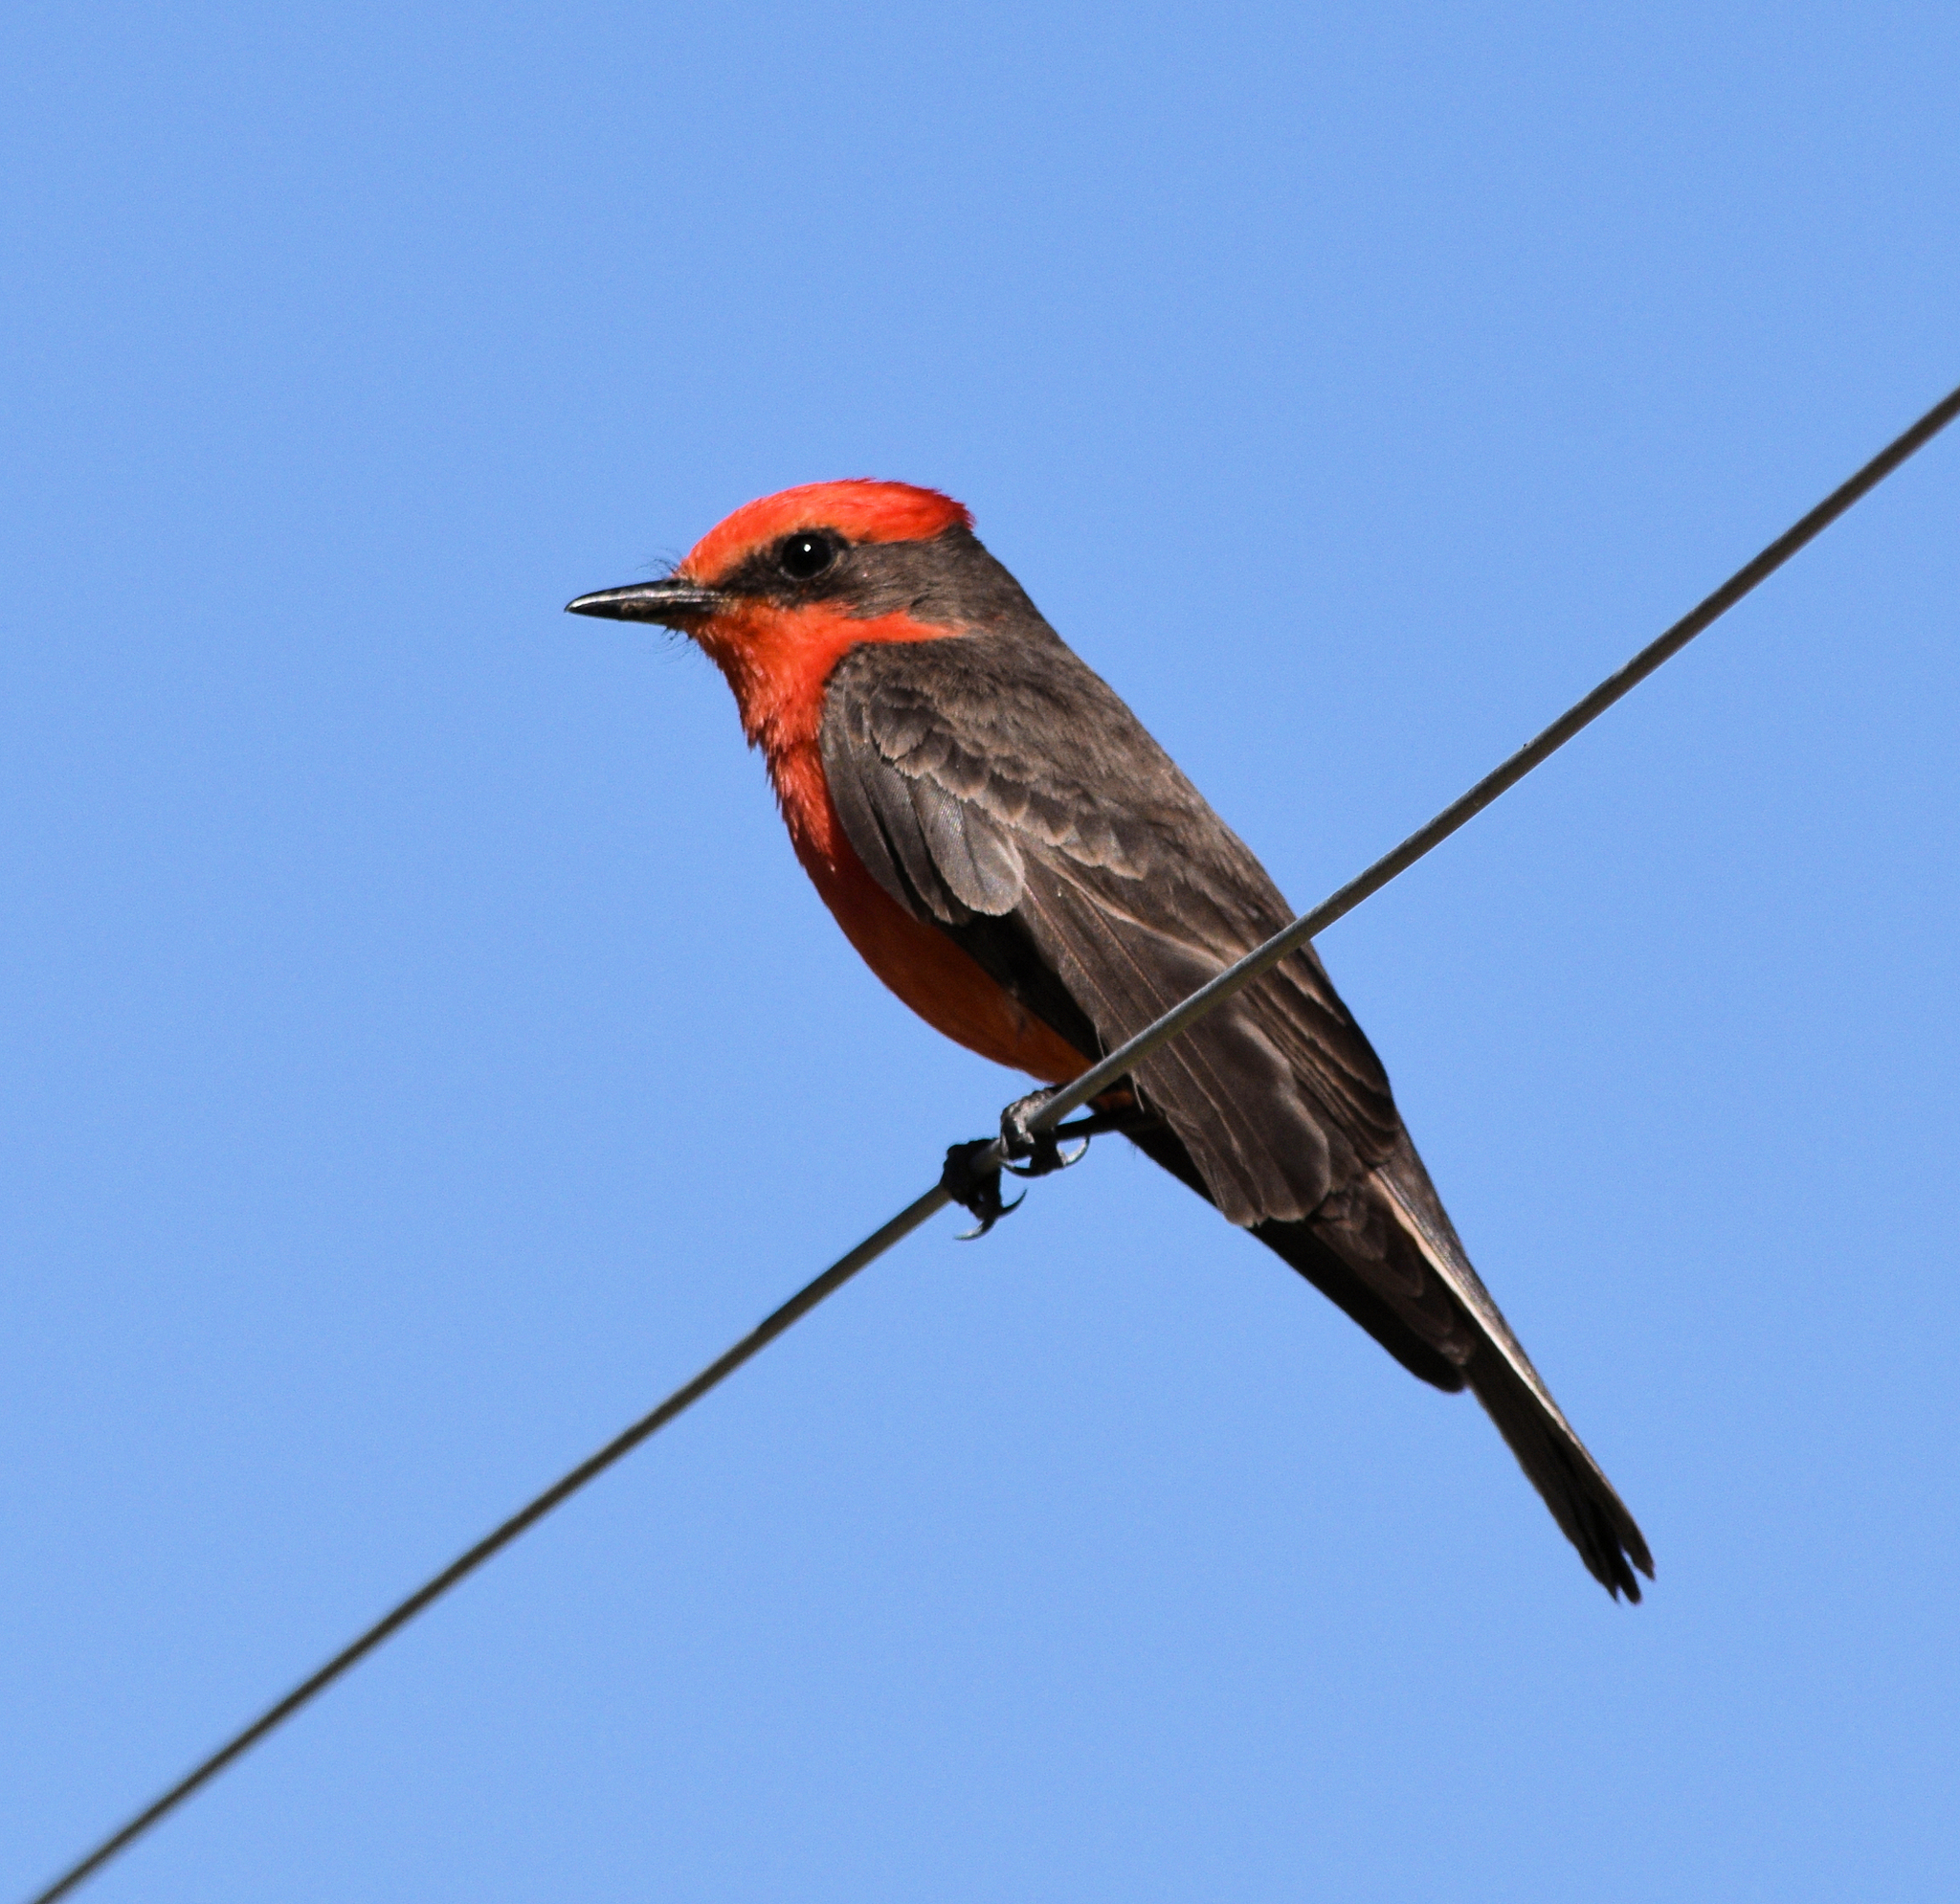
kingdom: Animalia
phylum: Chordata
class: Aves
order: Passeriformes
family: Tyrannidae
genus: Pyrocephalus
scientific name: Pyrocephalus rubinus
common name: Vermilion flycatcher
